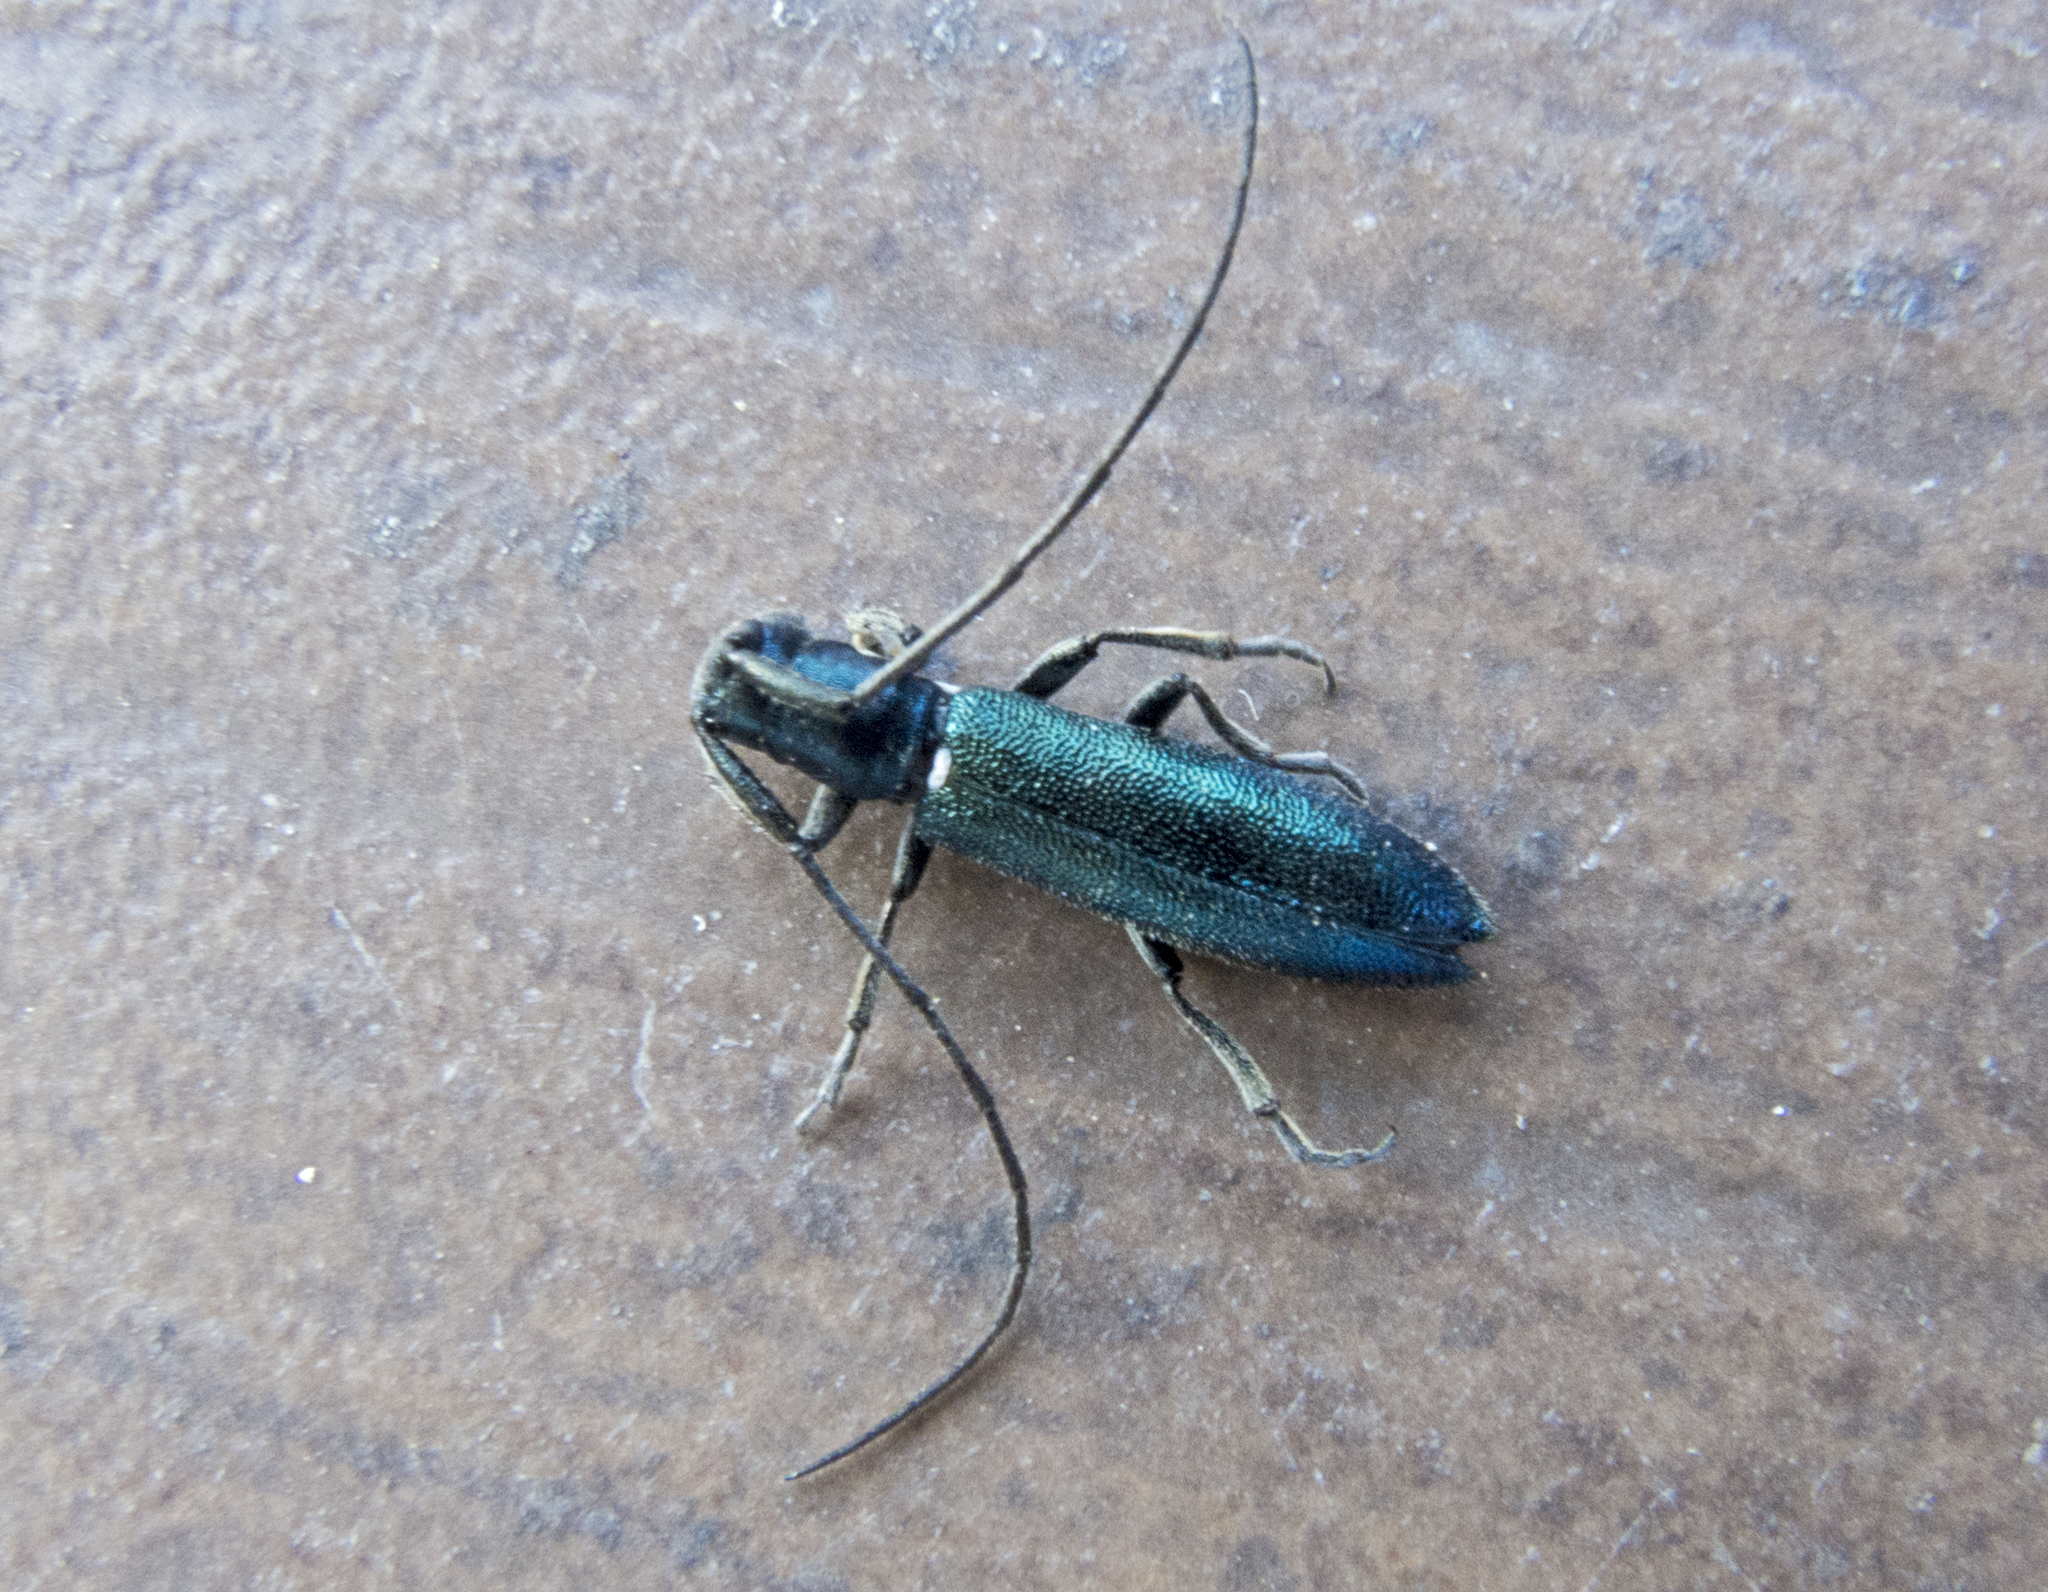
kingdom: Animalia
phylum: Arthropoda
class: Insecta
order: Coleoptera
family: Cerambycidae
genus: Agapanthiola
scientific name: Agapanthiola leucaspis
